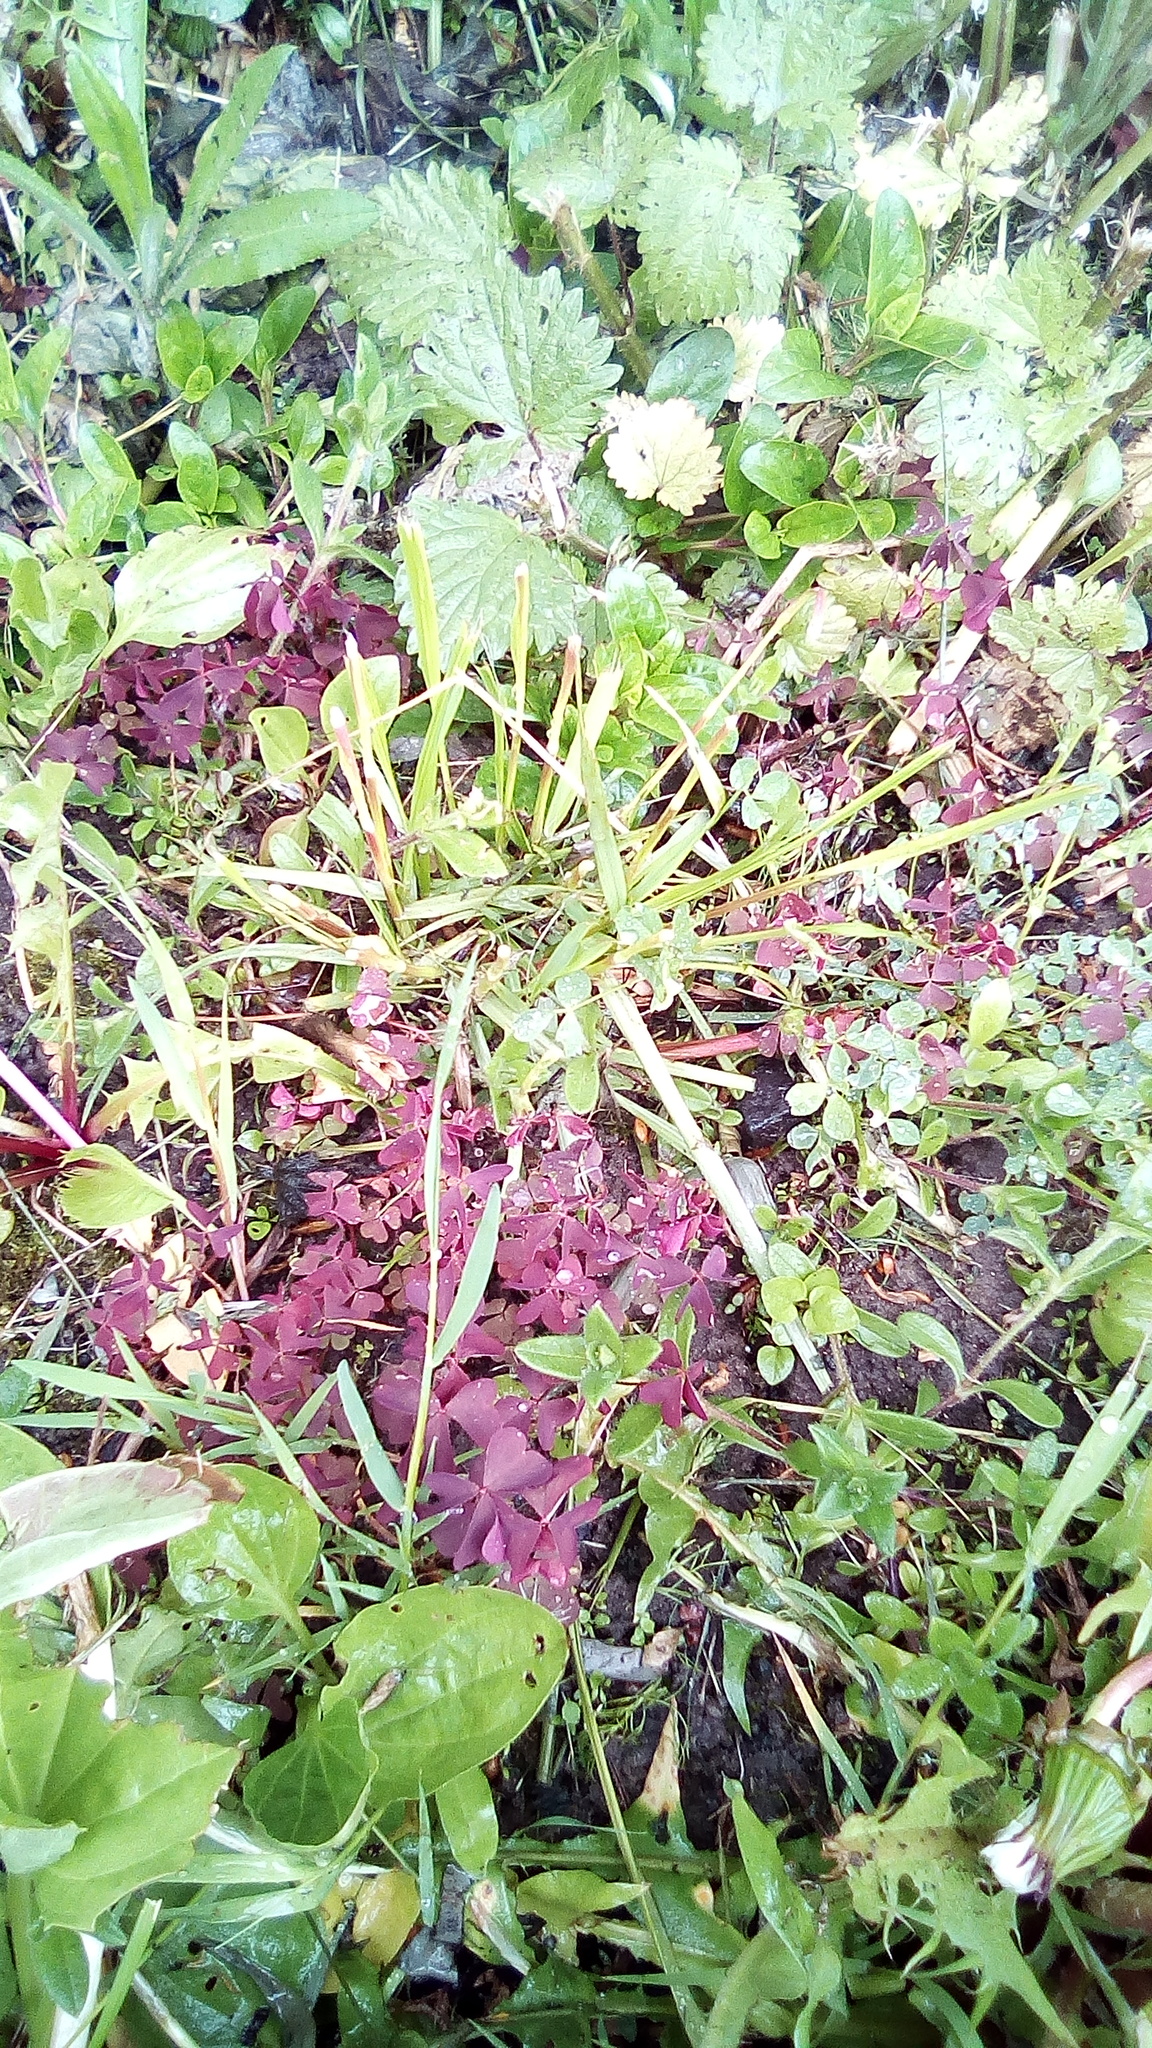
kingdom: Plantae
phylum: Tracheophyta
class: Magnoliopsida
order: Oxalidales
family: Oxalidaceae
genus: Oxalis
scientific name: Oxalis stricta
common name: Upright yellow-sorrel
